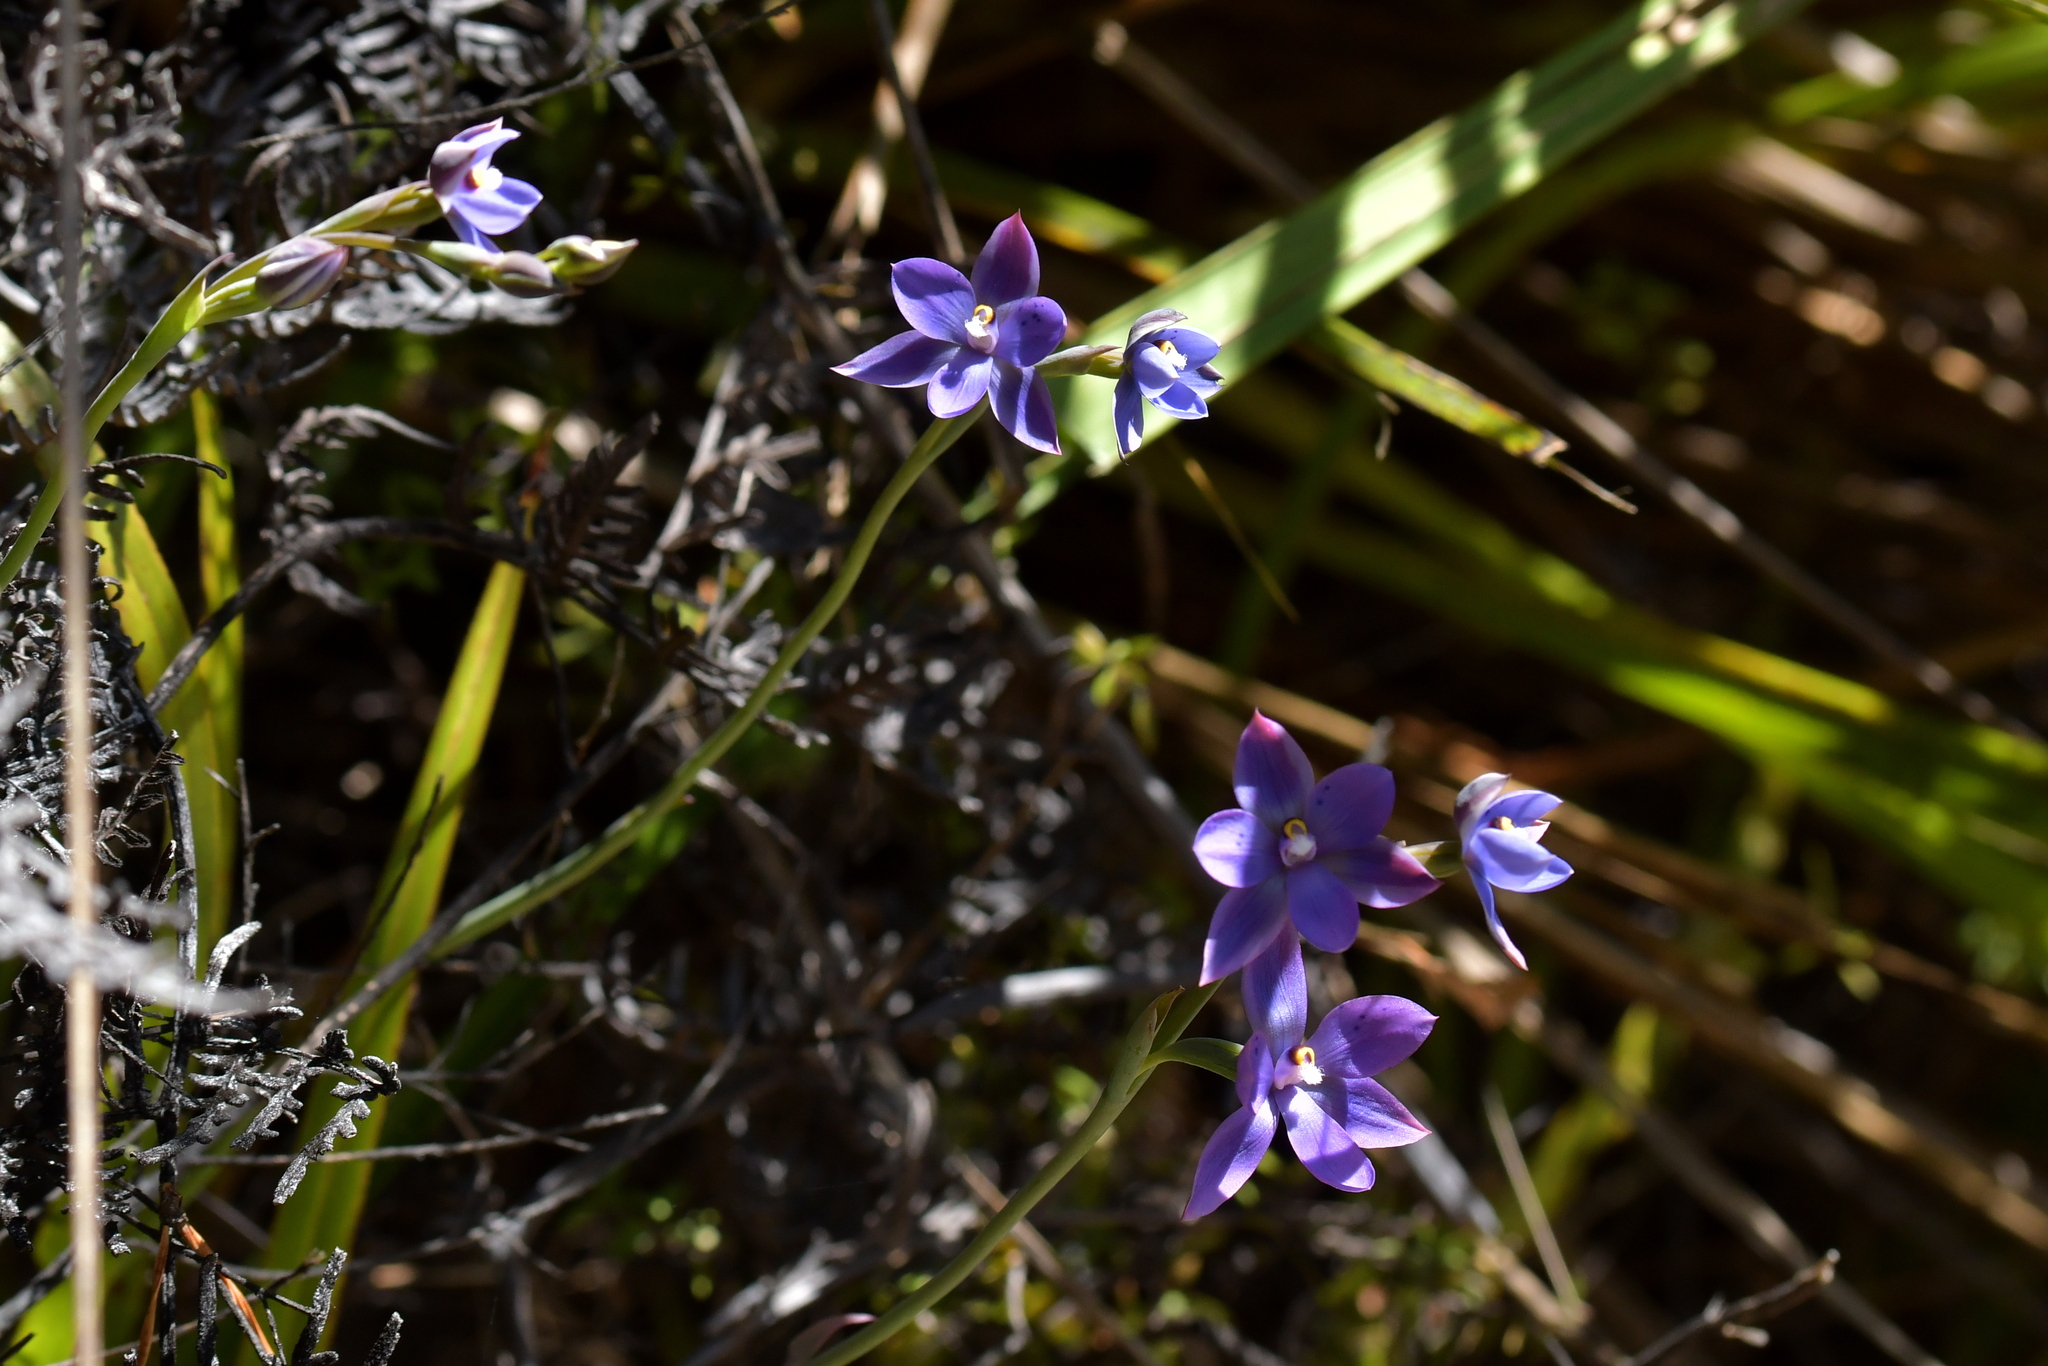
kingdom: Plantae
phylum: Tracheophyta
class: Liliopsida
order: Asparagales
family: Orchidaceae
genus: Thelymitra
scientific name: Thelymitra nervosa
